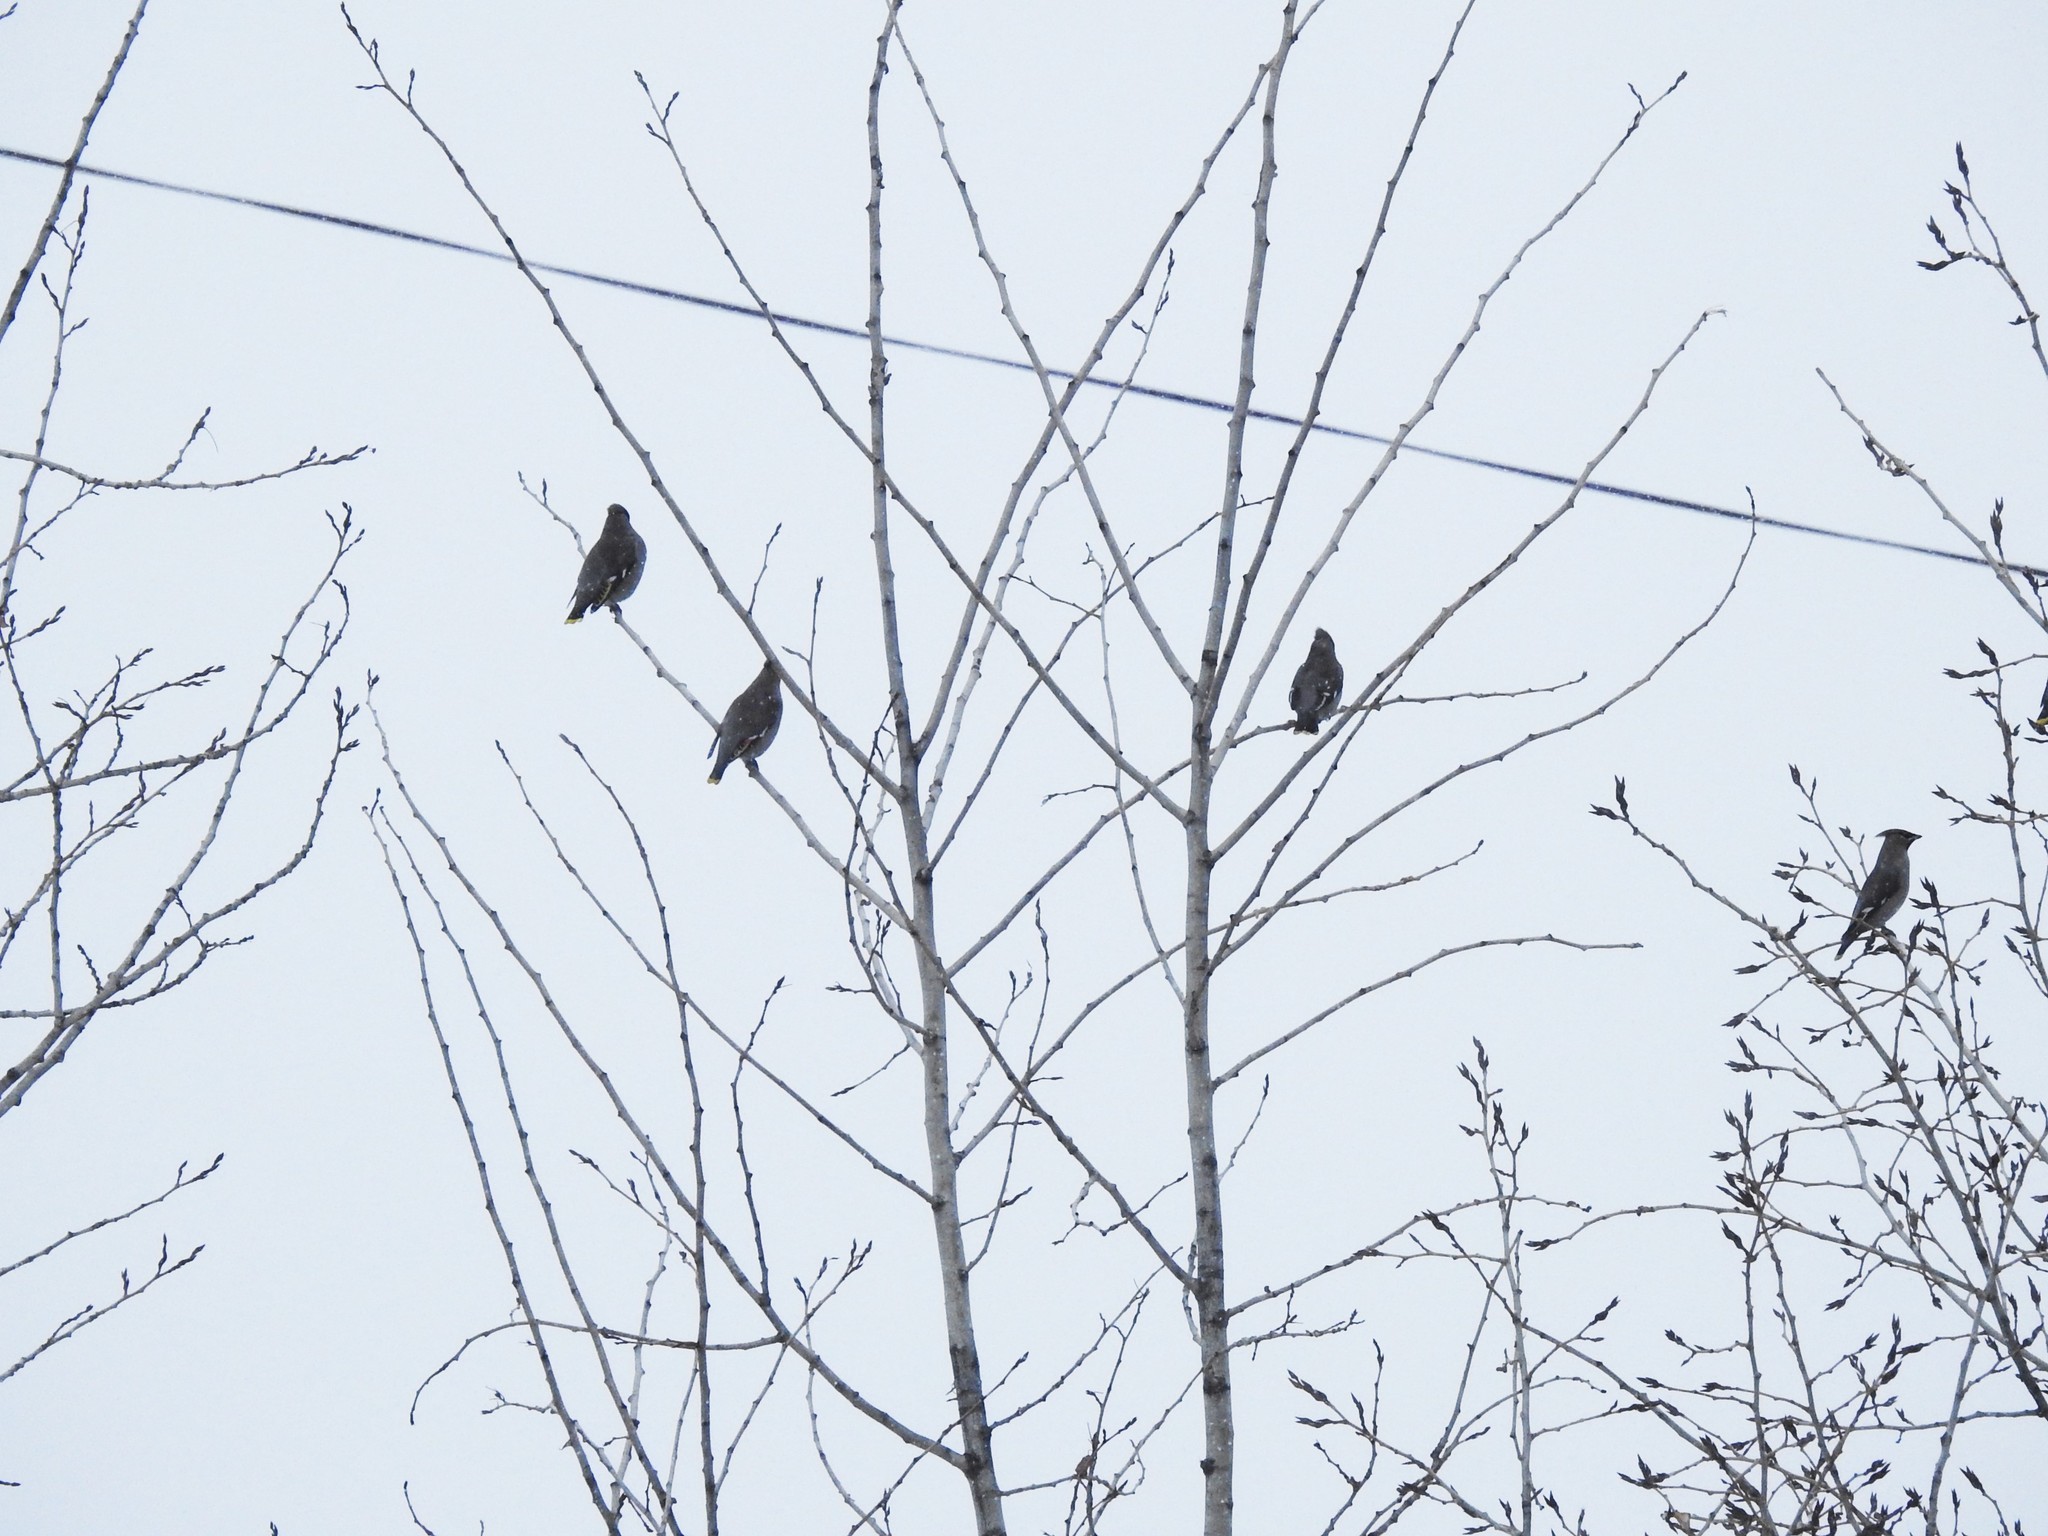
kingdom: Animalia
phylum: Chordata
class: Aves
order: Passeriformes
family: Bombycillidae
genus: Bombycilla
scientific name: Bombycilla garrulus
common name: Bohemian waxwing
